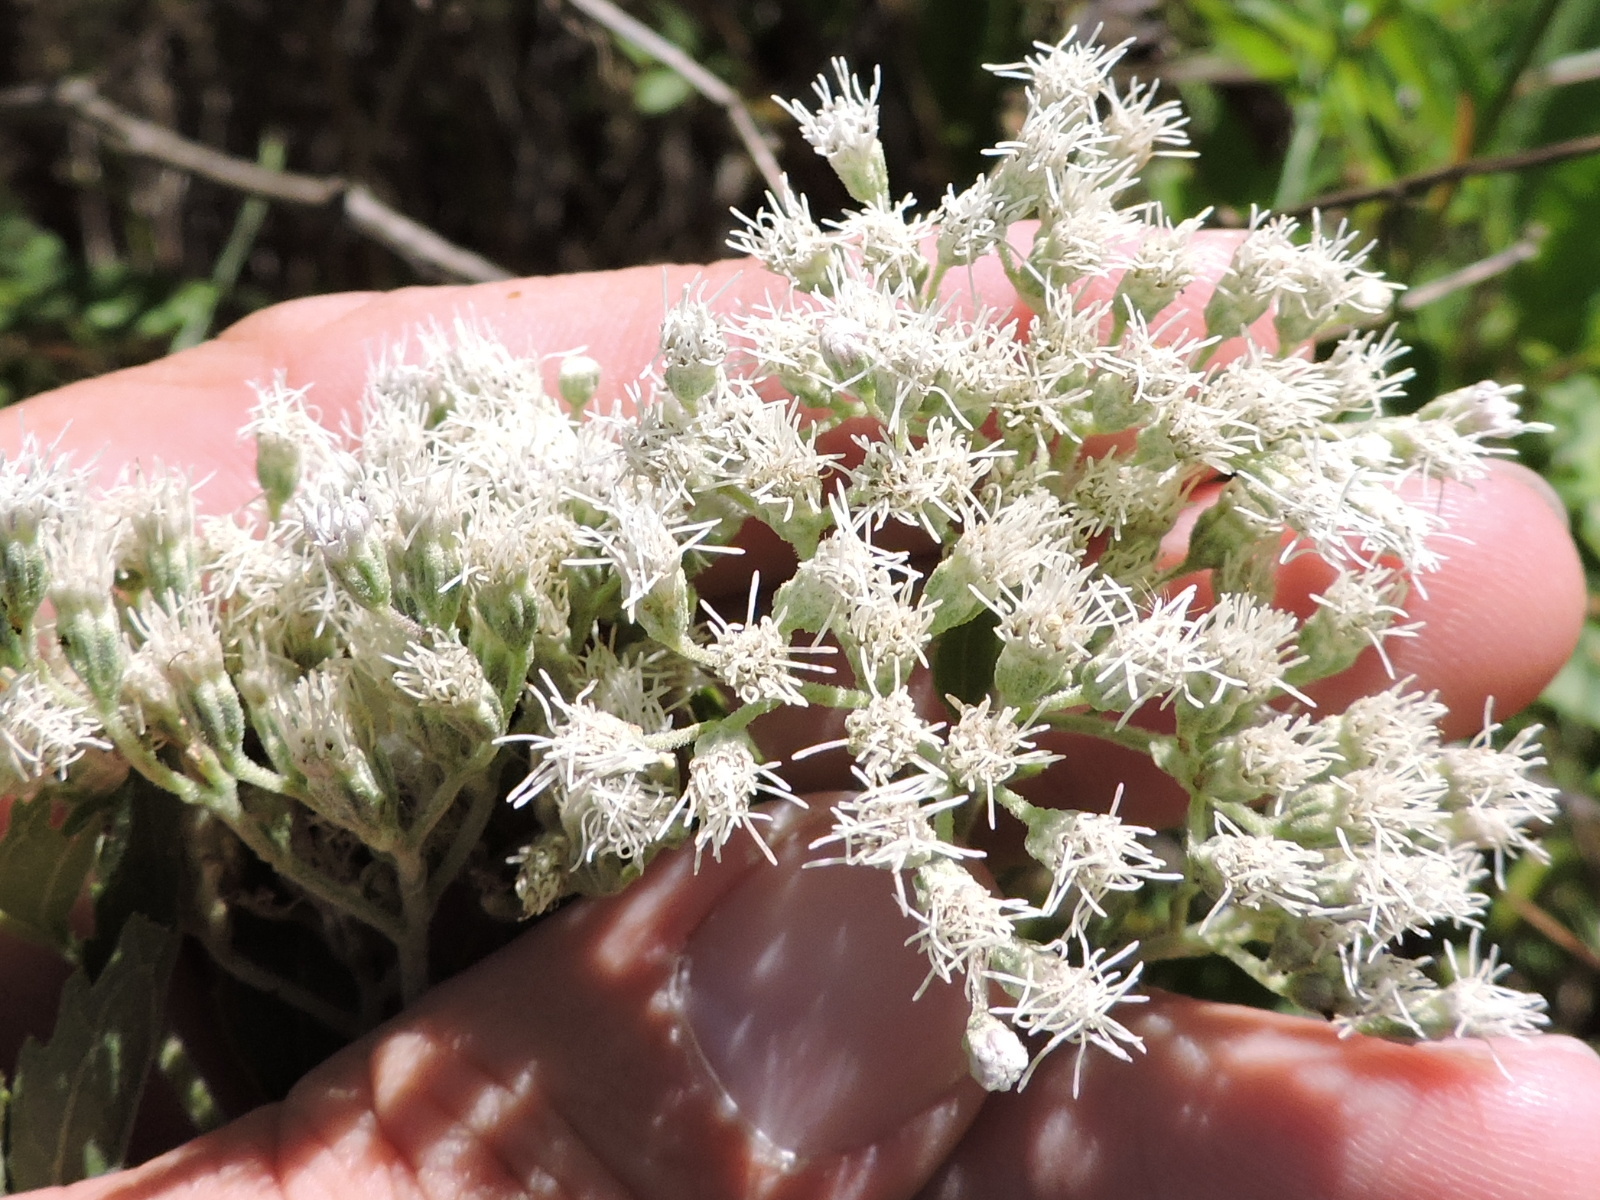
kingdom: Plantae
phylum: Tracheophyta
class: Magnoliopsida
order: Asterales
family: Asteraceae
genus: Eupatorium
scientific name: Eupatorium serotinum
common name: Late boneset
